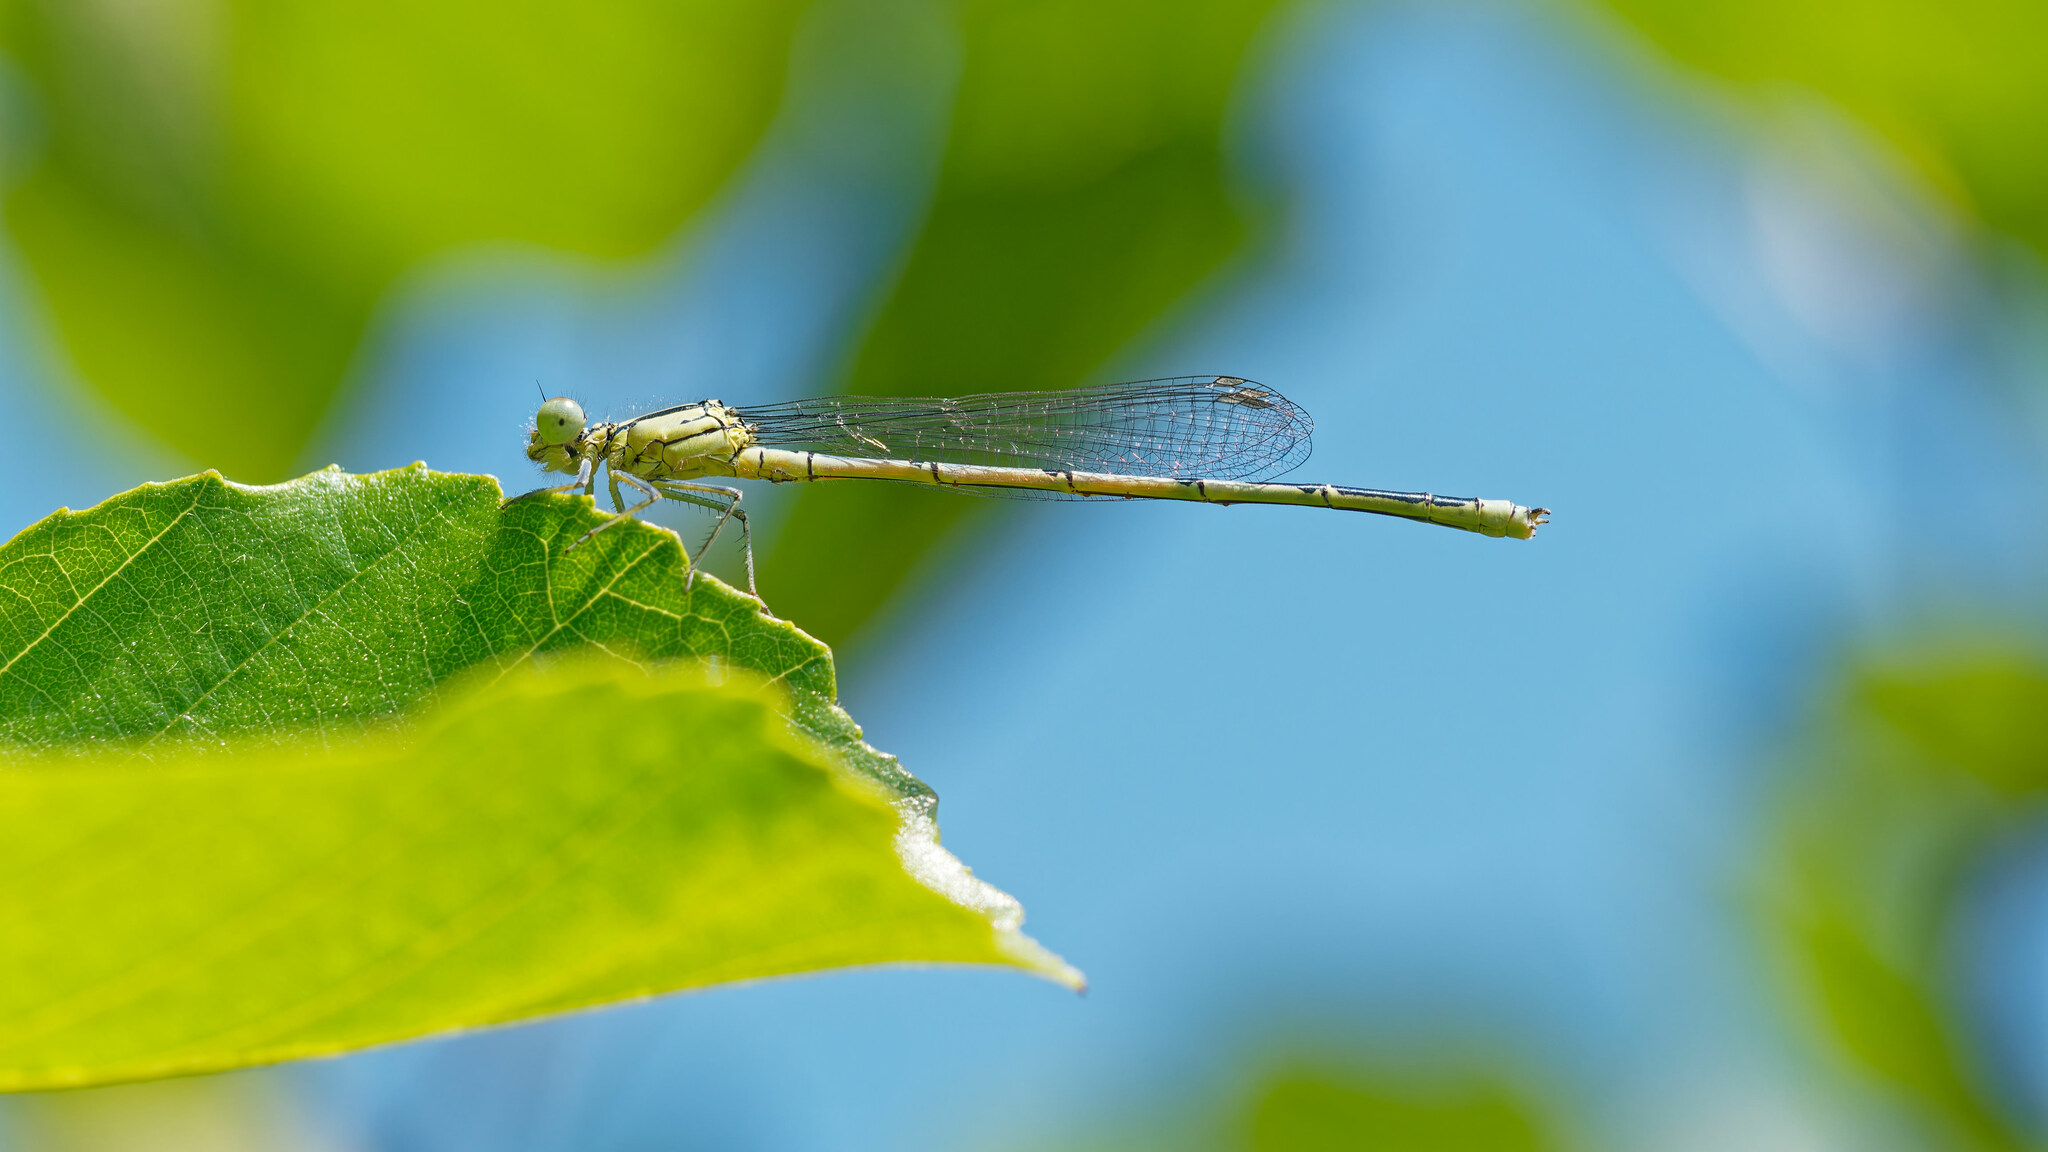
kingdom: Animalia
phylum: Arthropoda
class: Insecta
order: Odonata
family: Coenagrionidae
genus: Erythromma
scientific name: Erythromma lindenii
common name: Blue-eye
